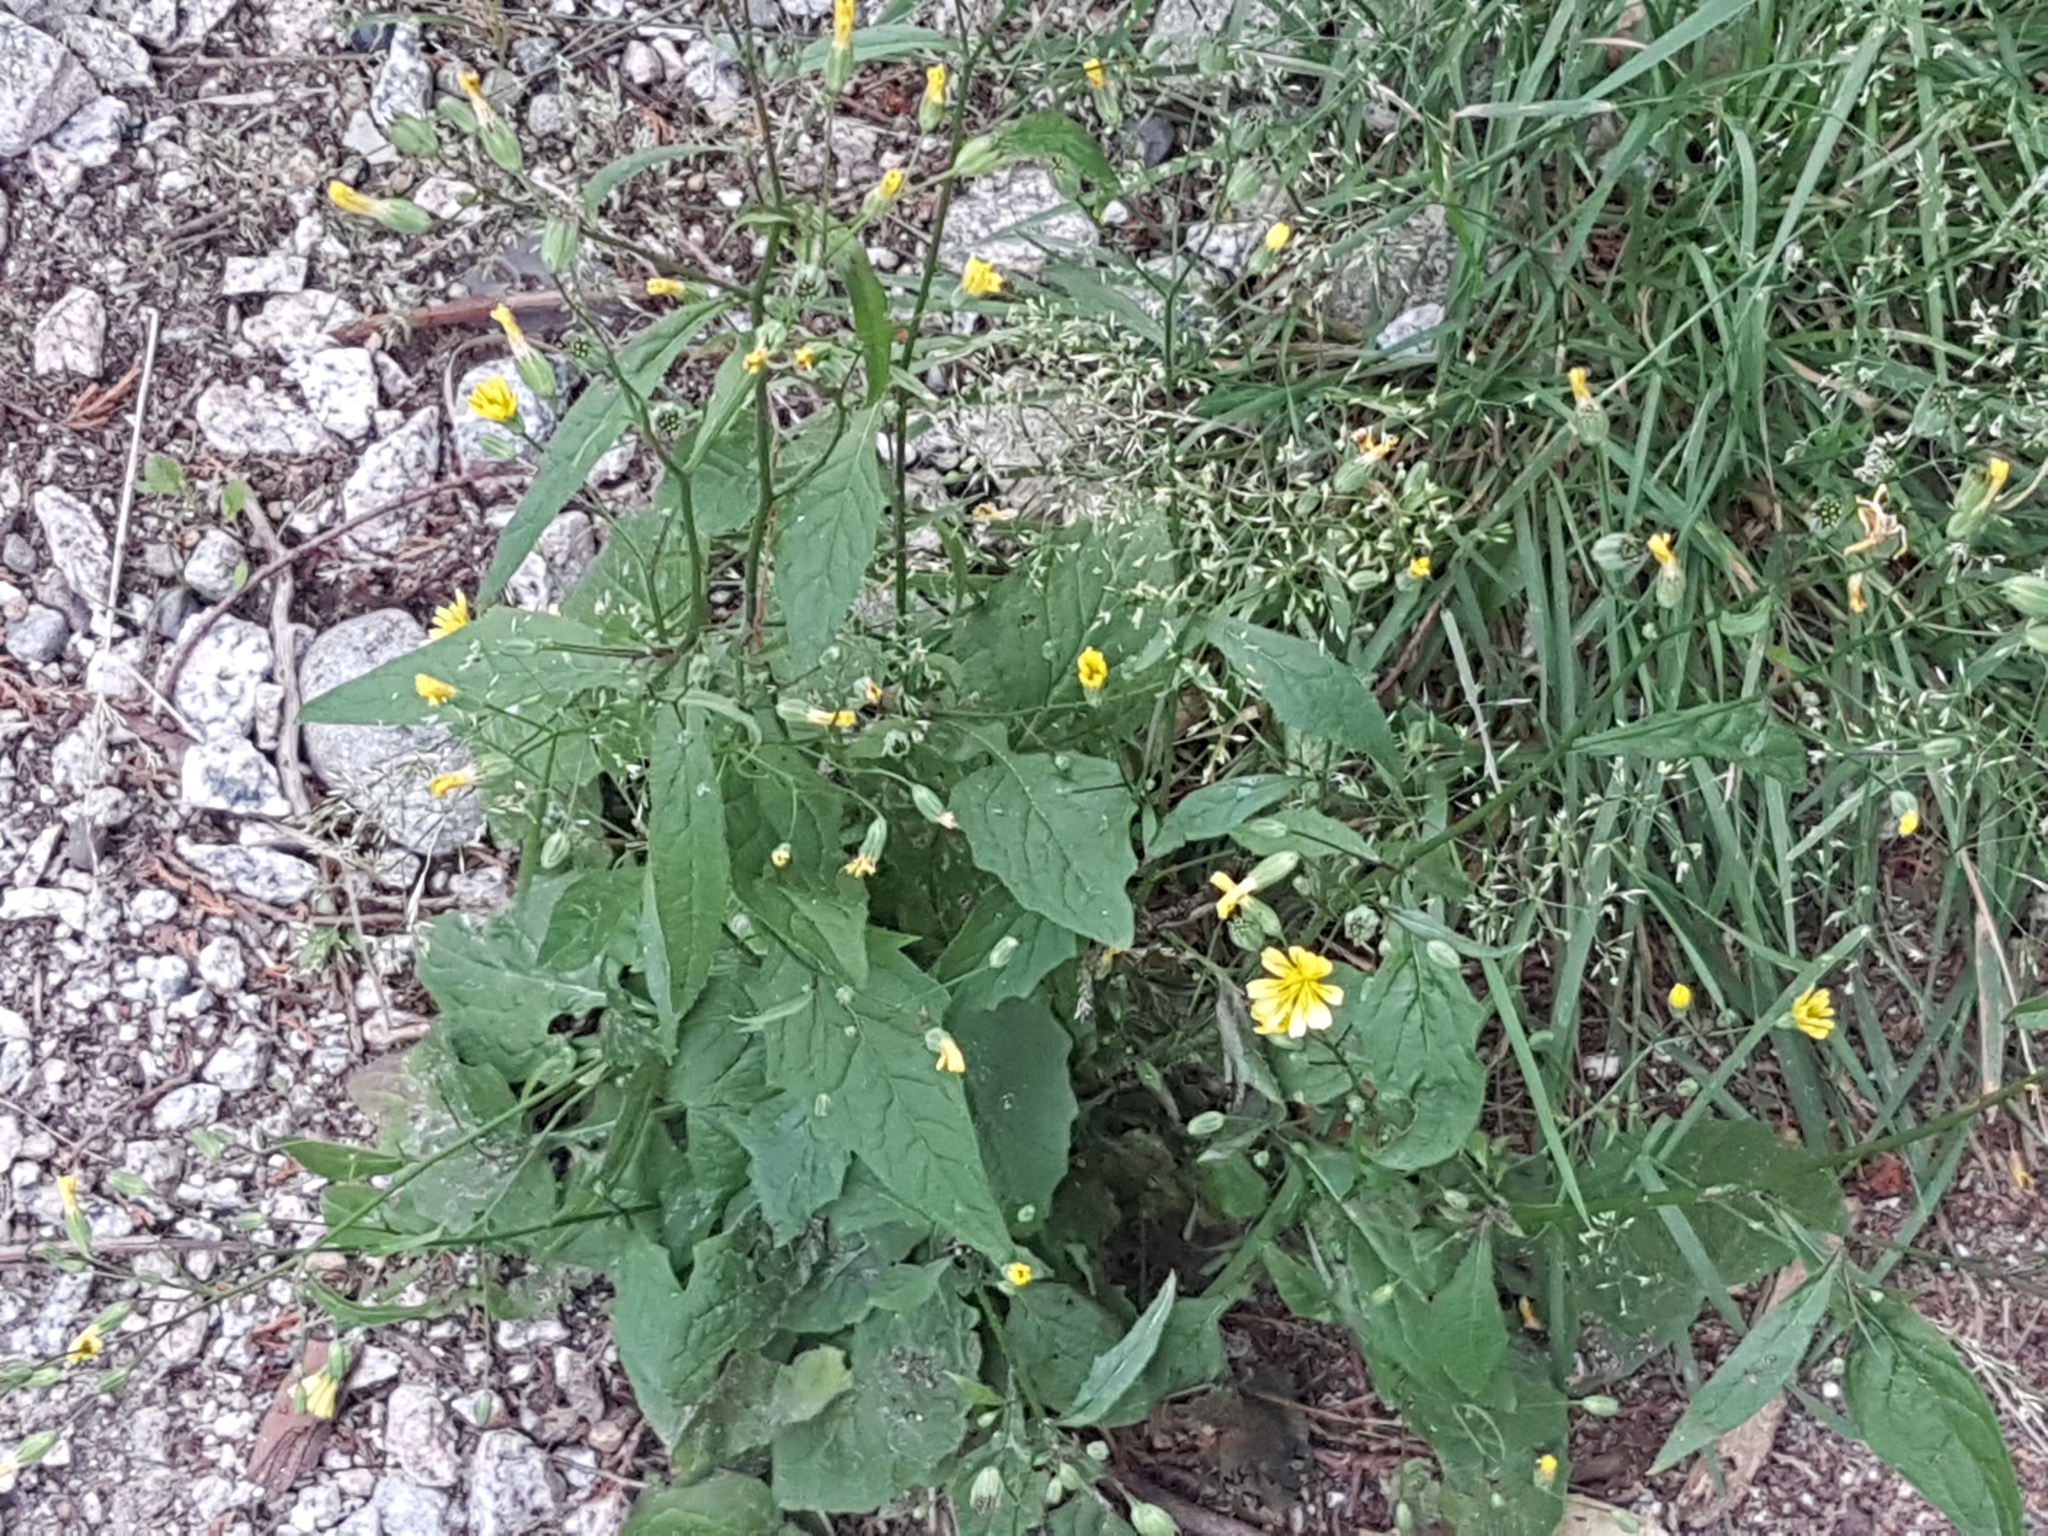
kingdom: Plantae
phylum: Tracheophyta
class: Magnoliopsida
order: Asterales
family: Asteraceae
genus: Lapsana
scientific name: Lapsana communis
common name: Nipplewort
